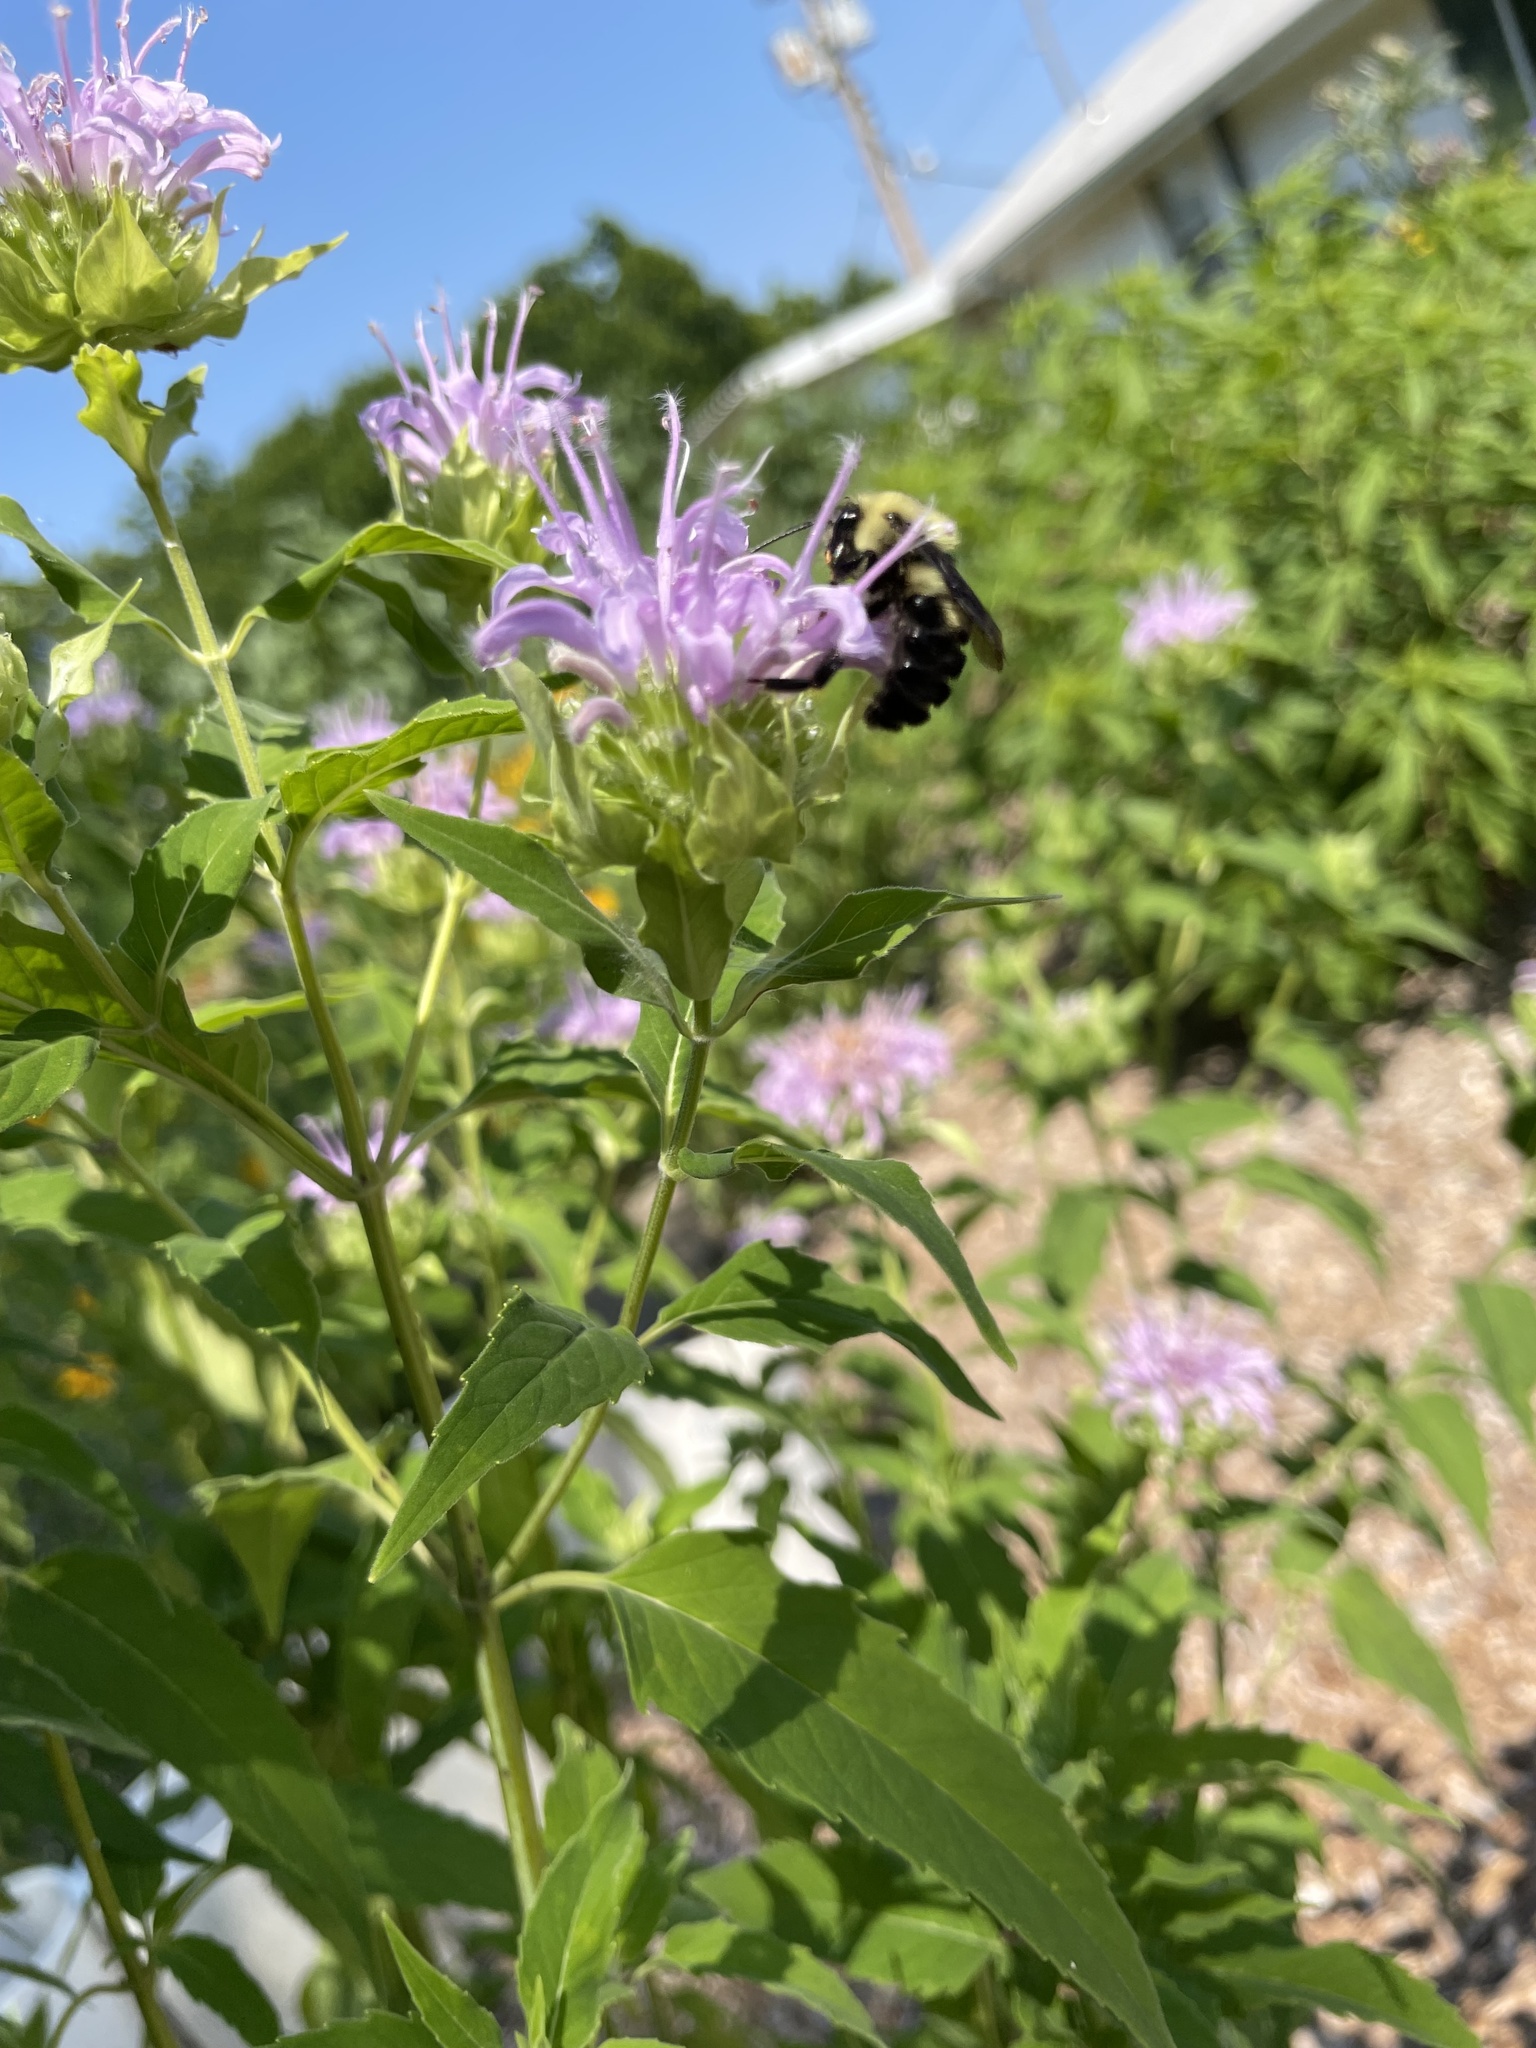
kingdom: Animalia
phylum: Arthropoda
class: Insecta
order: Hymenoptera
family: Apidae
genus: Bombus
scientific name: Bombus bimaculatus
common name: Two-spotted bumble bee
